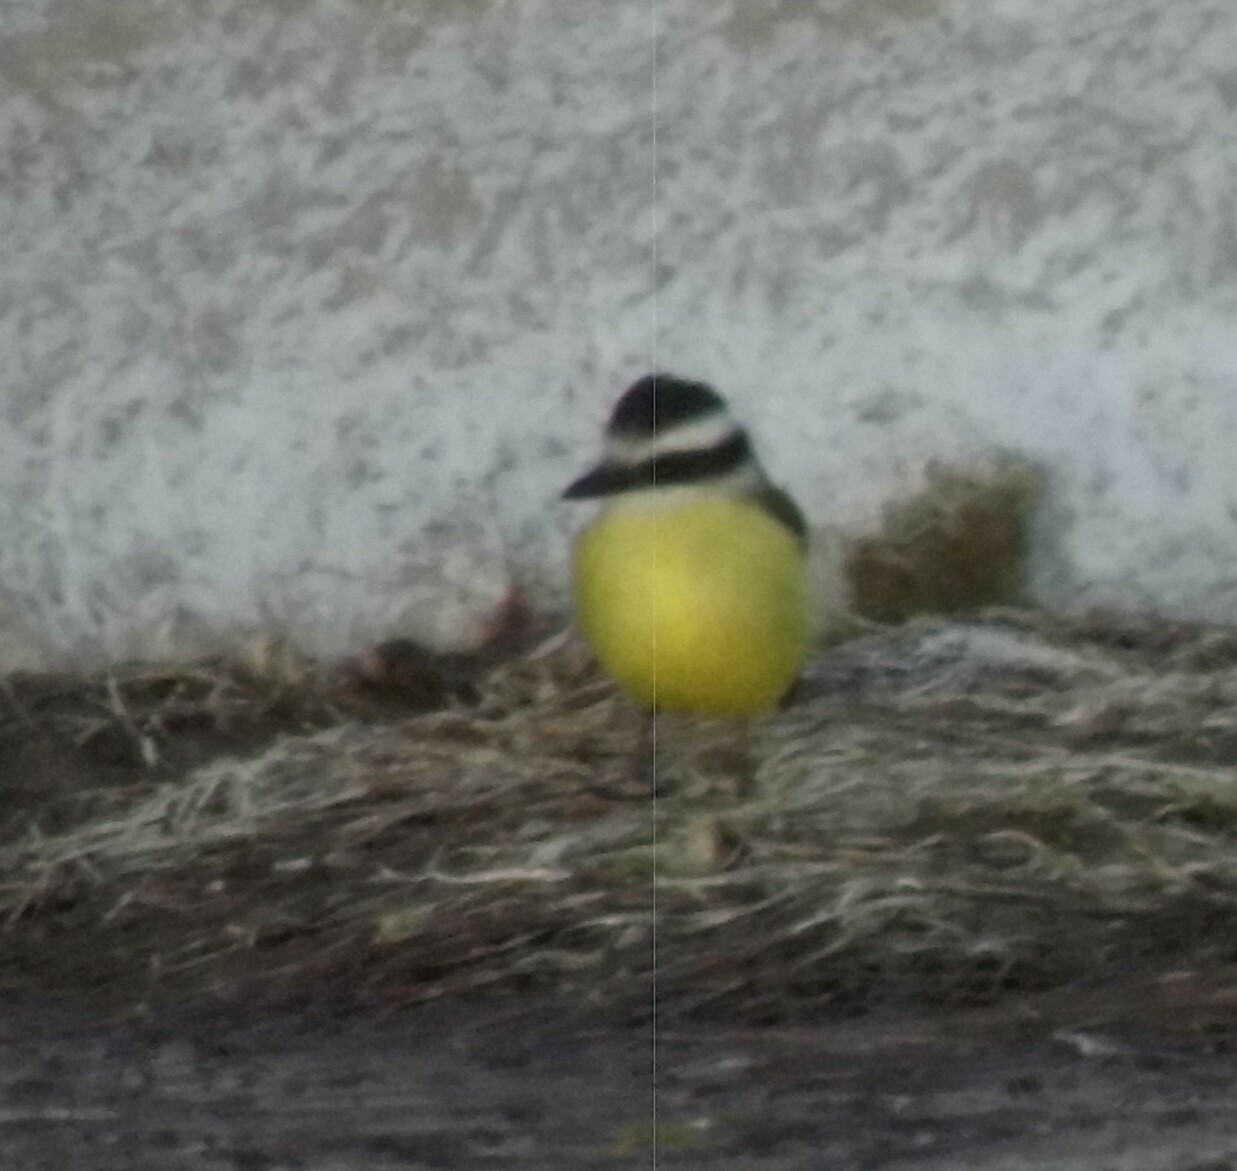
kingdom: Animalia
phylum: Chordata
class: Aves
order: Passeriformes
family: Tyrannidae
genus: Pitangus
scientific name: Pitangus sulphuratus
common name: Great kiskadee
